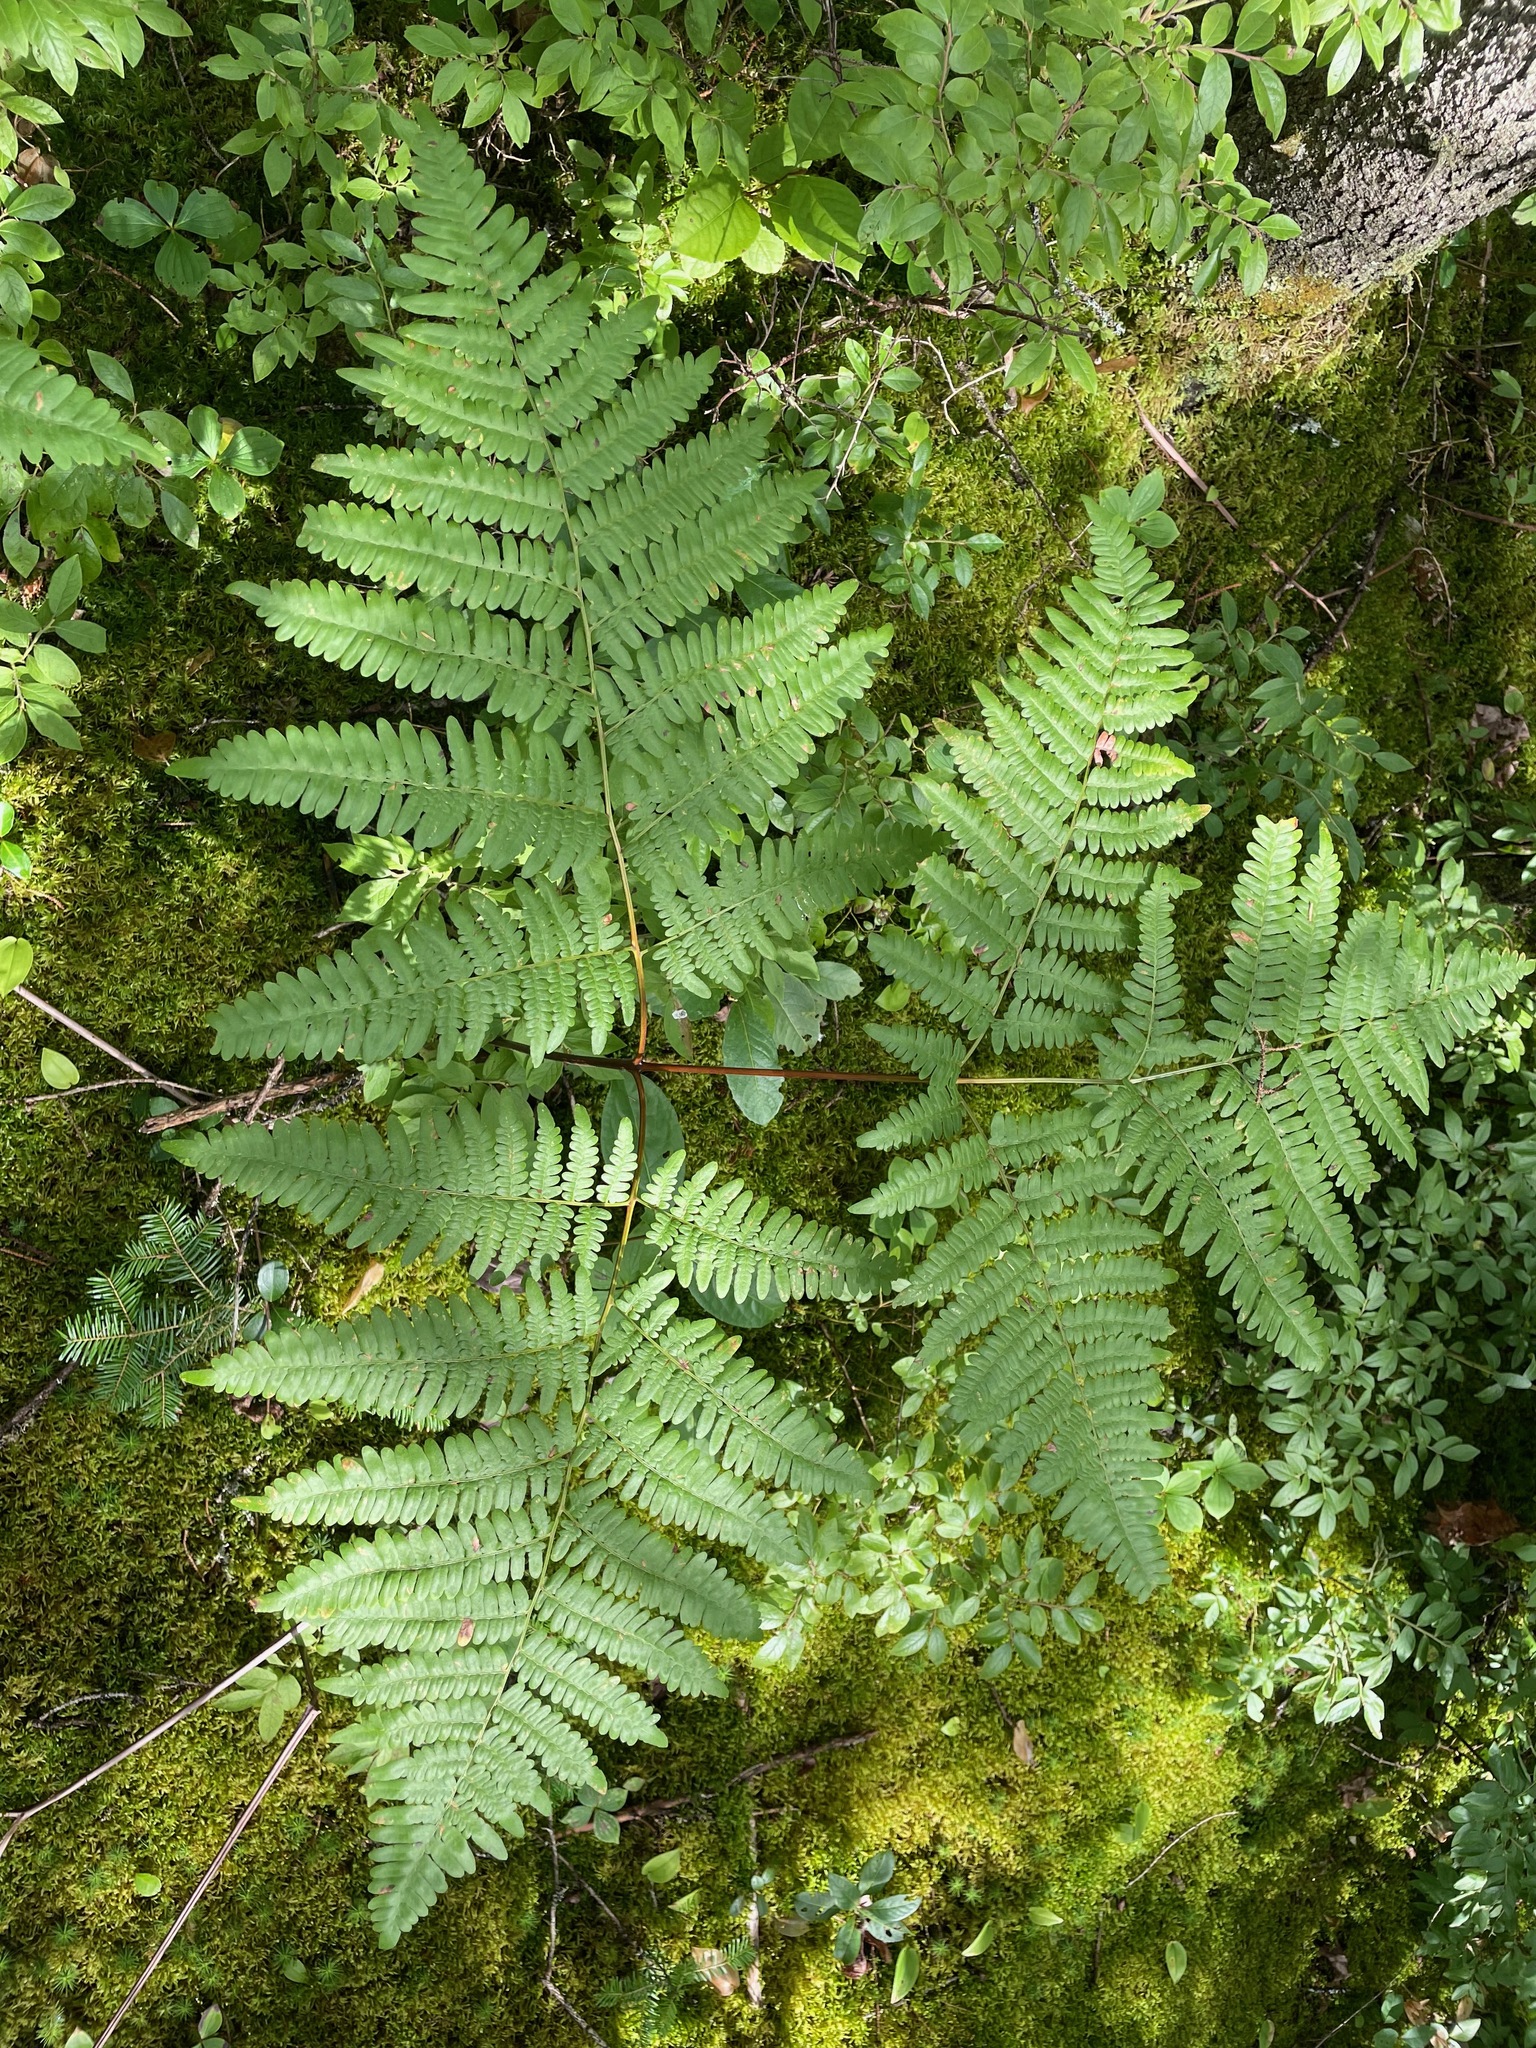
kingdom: Plantae
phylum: Tracheophyta
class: Polypodiopsida
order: Polypodiales
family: Dennstaedtiaceae
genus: Pteridium
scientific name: Pteridium aquilinum
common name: Bracken
